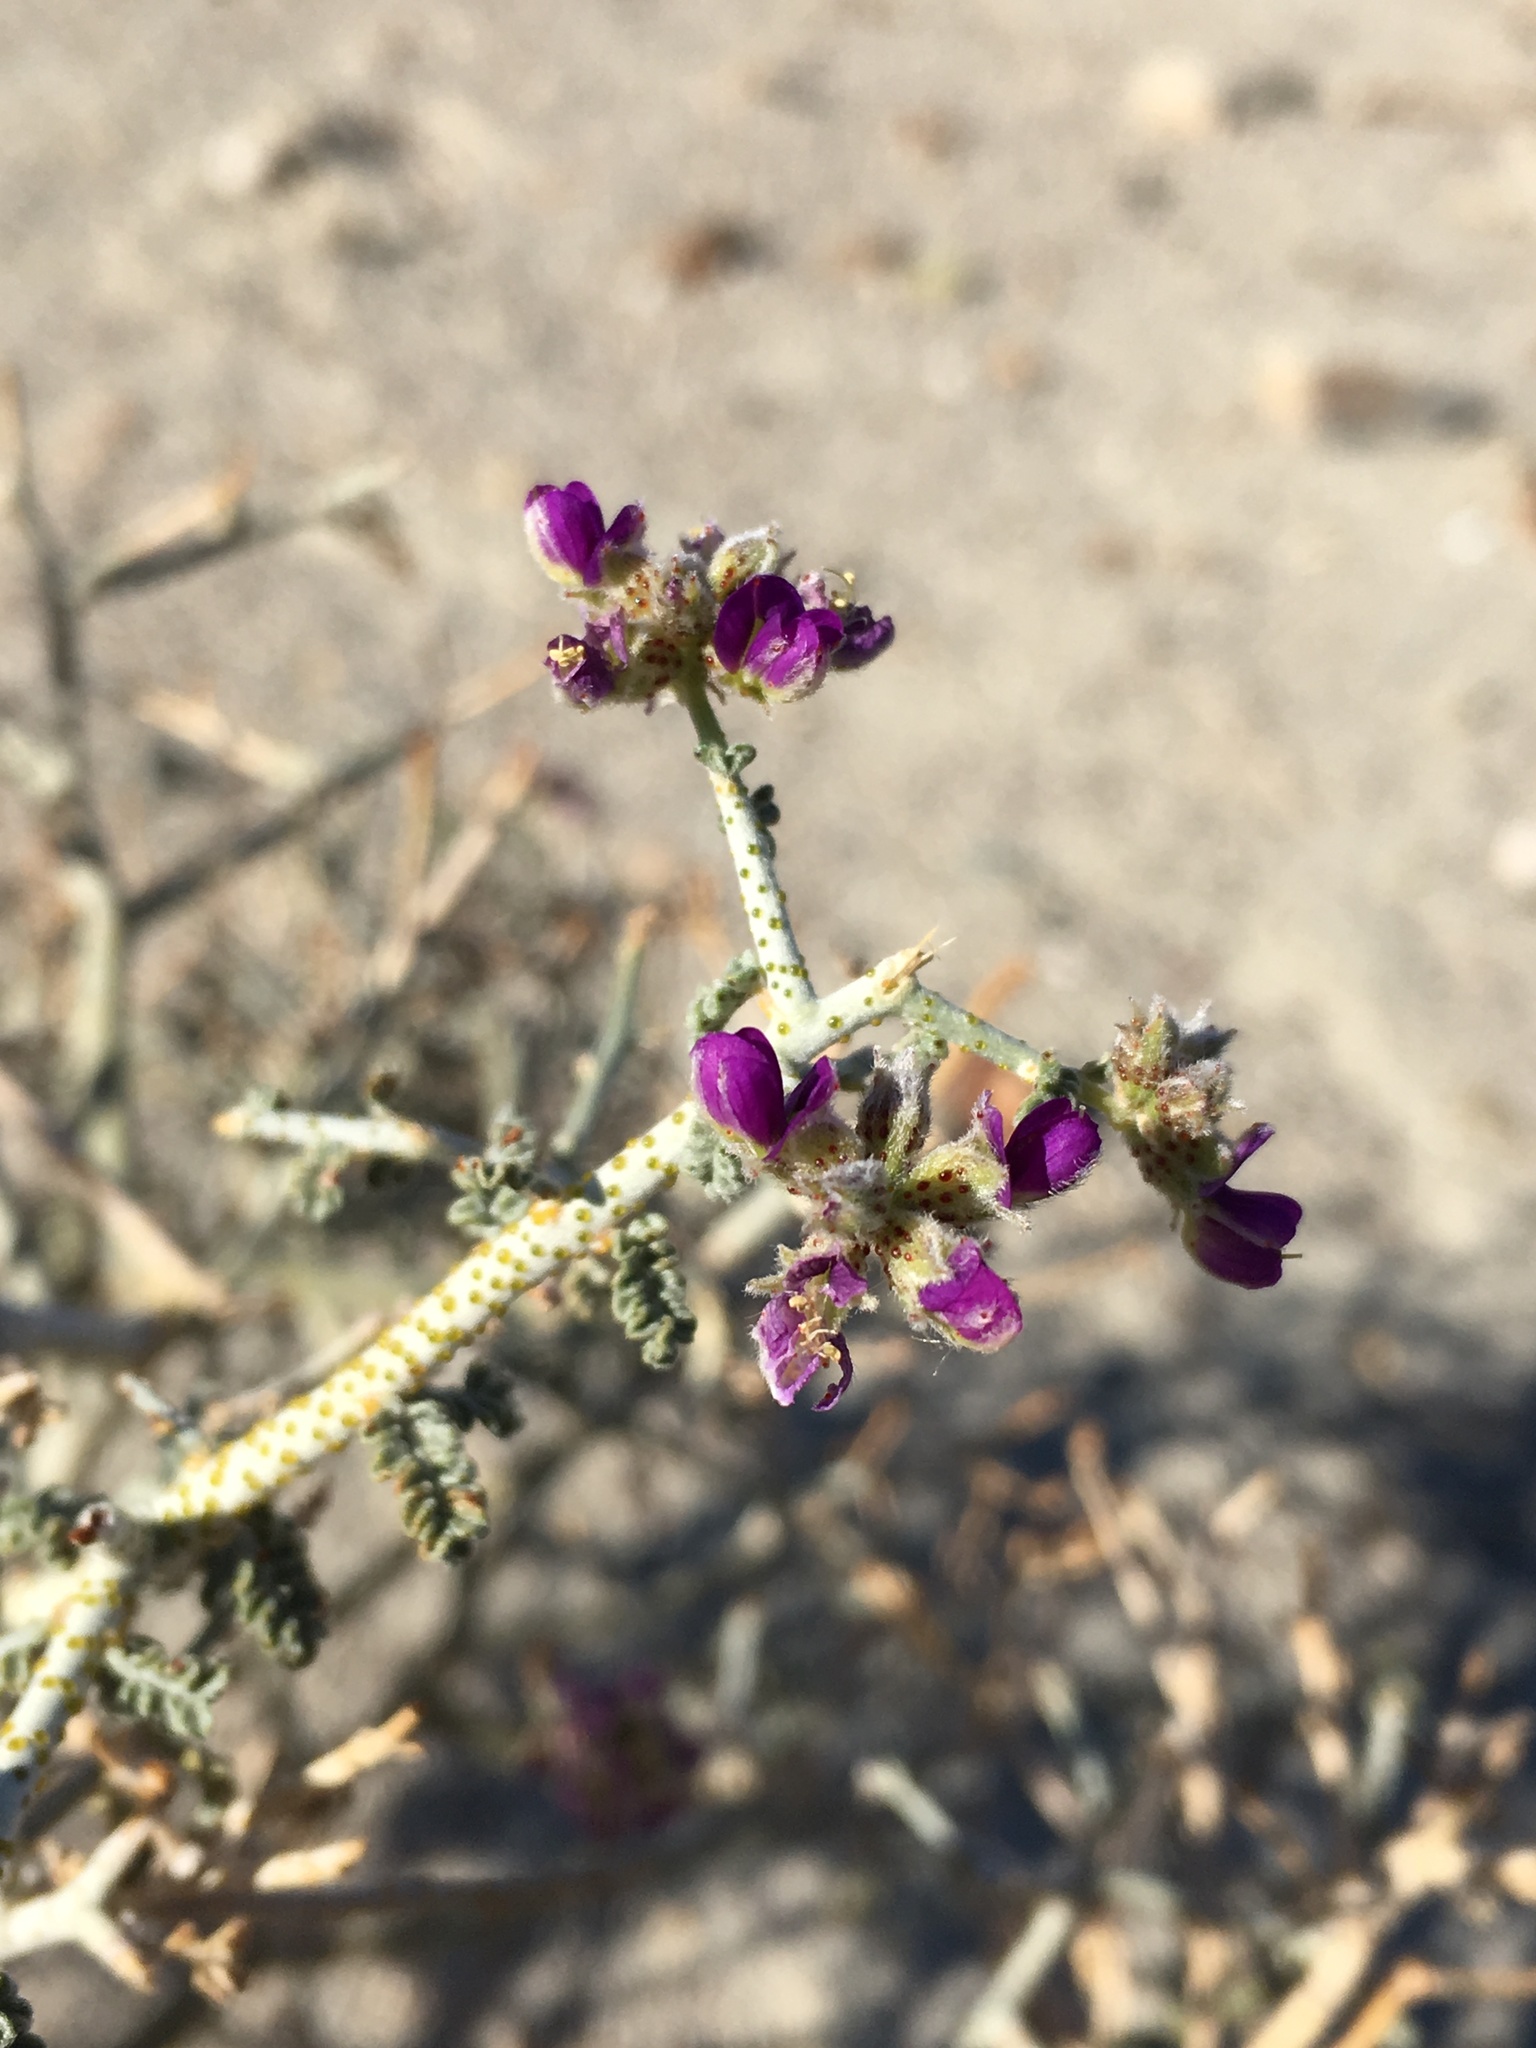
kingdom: Plantae
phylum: Tracheophyta
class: Magnoliopsida
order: Fabales
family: Fabaceae
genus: Psorothamnus
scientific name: Psorothamnus polydenius
